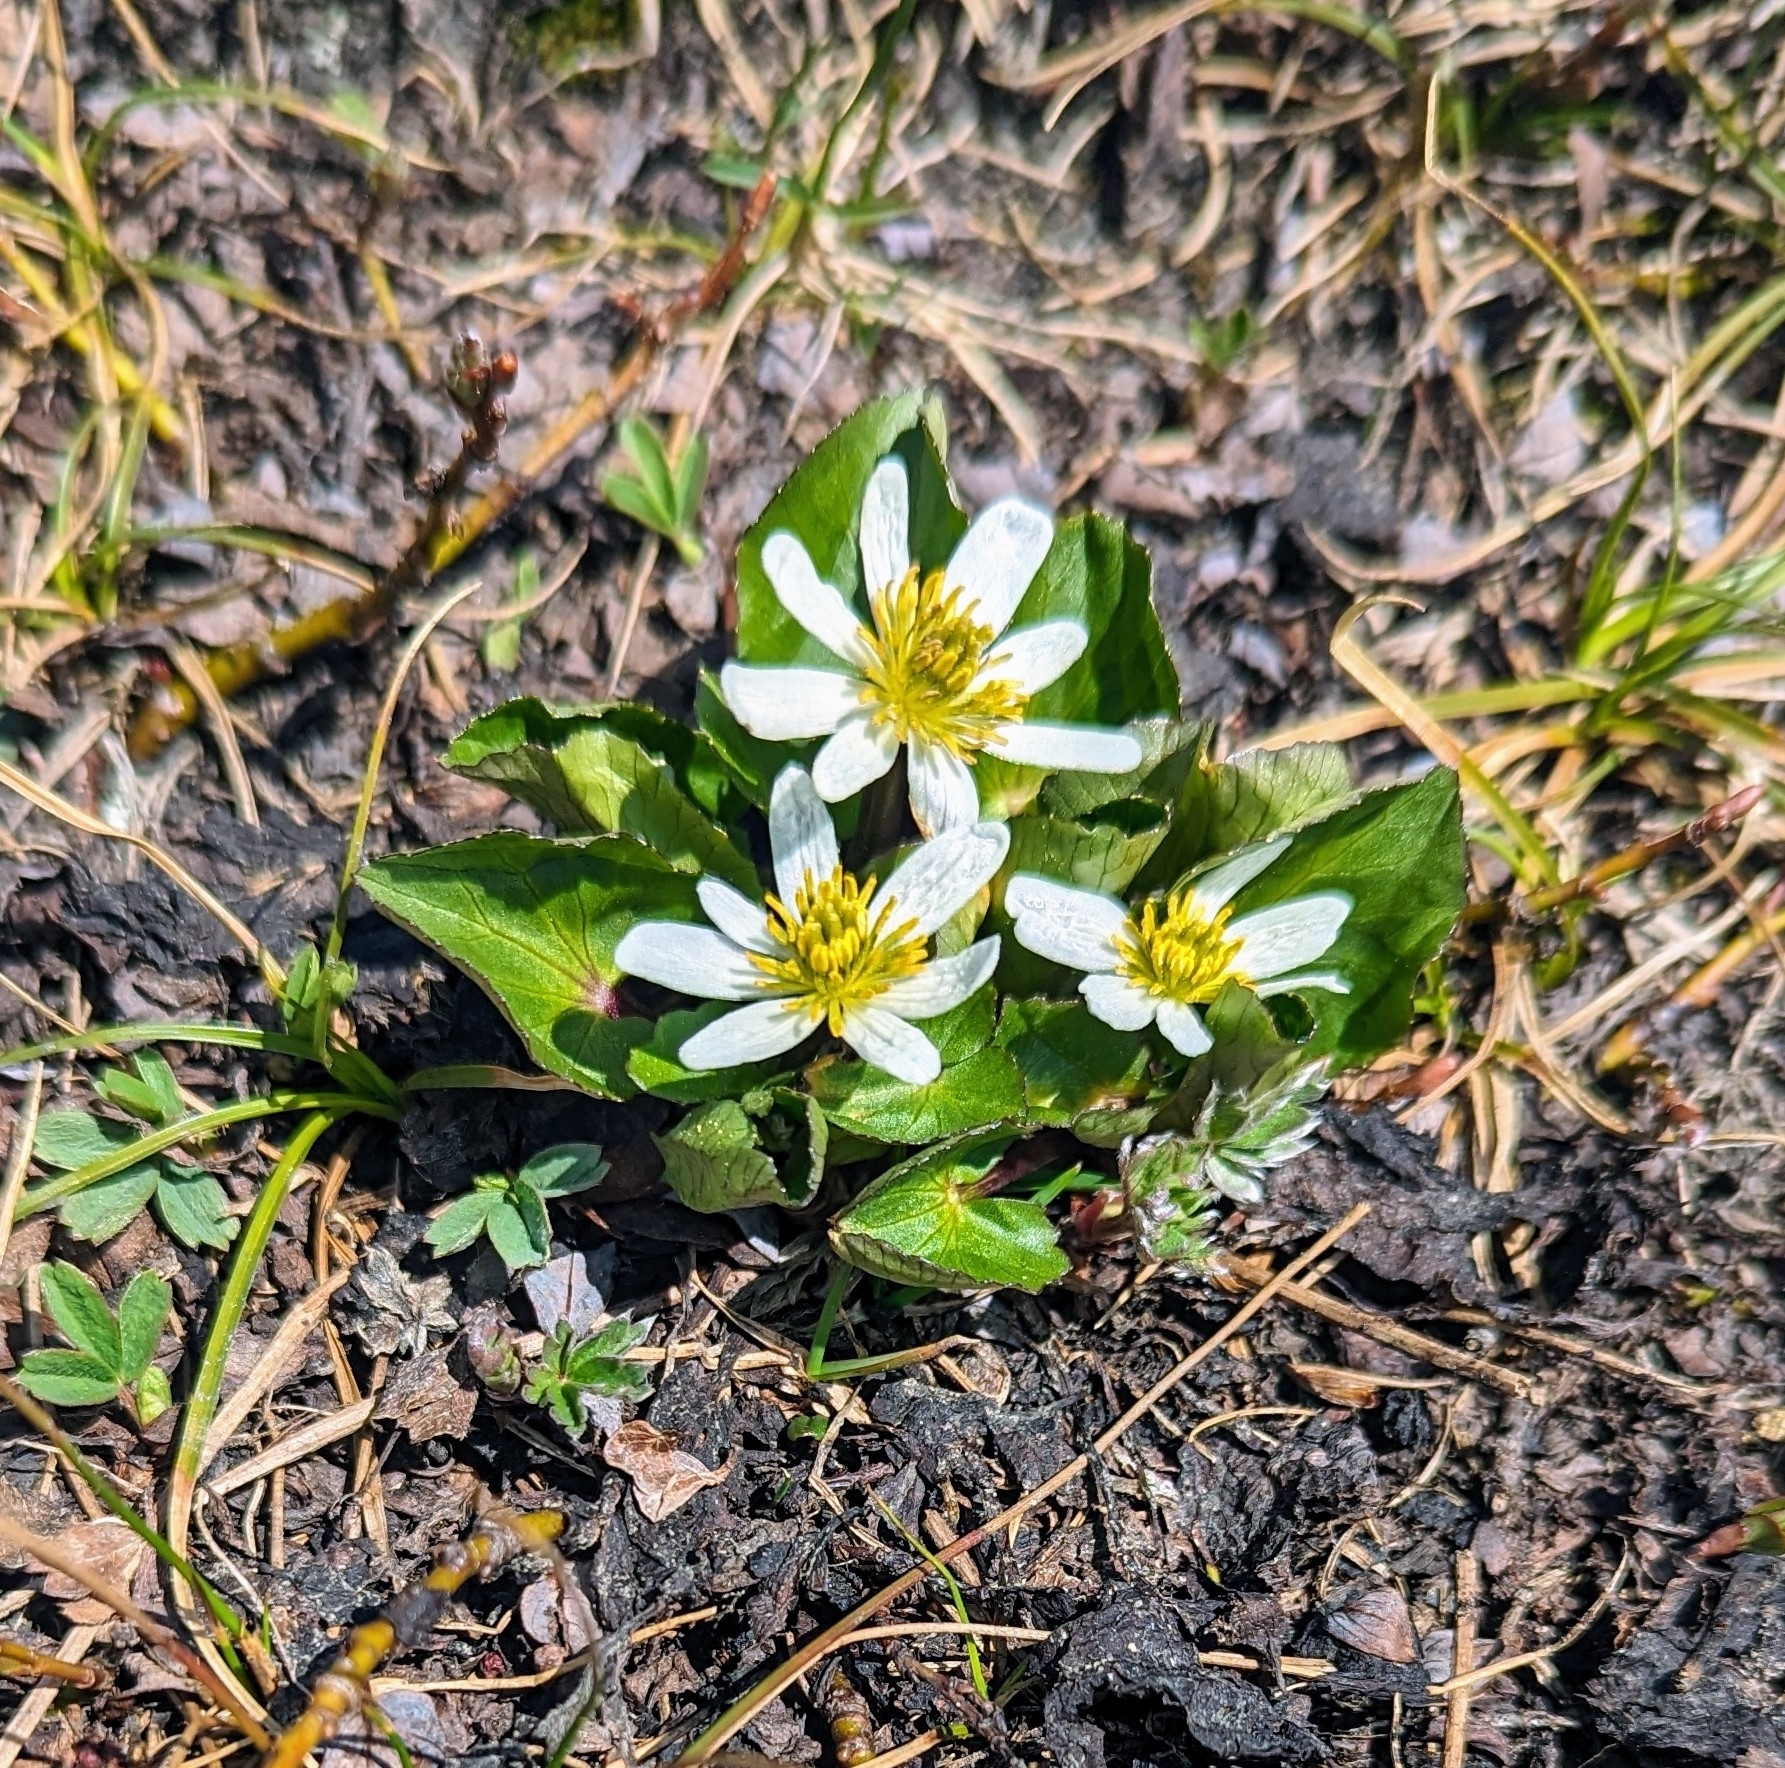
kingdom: Plantae
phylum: Tracheophyta
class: Magnoliopsida
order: Ranunculales
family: Ranunculaceae
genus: Caltha
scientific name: Caltha leptosepala
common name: Elkslip
